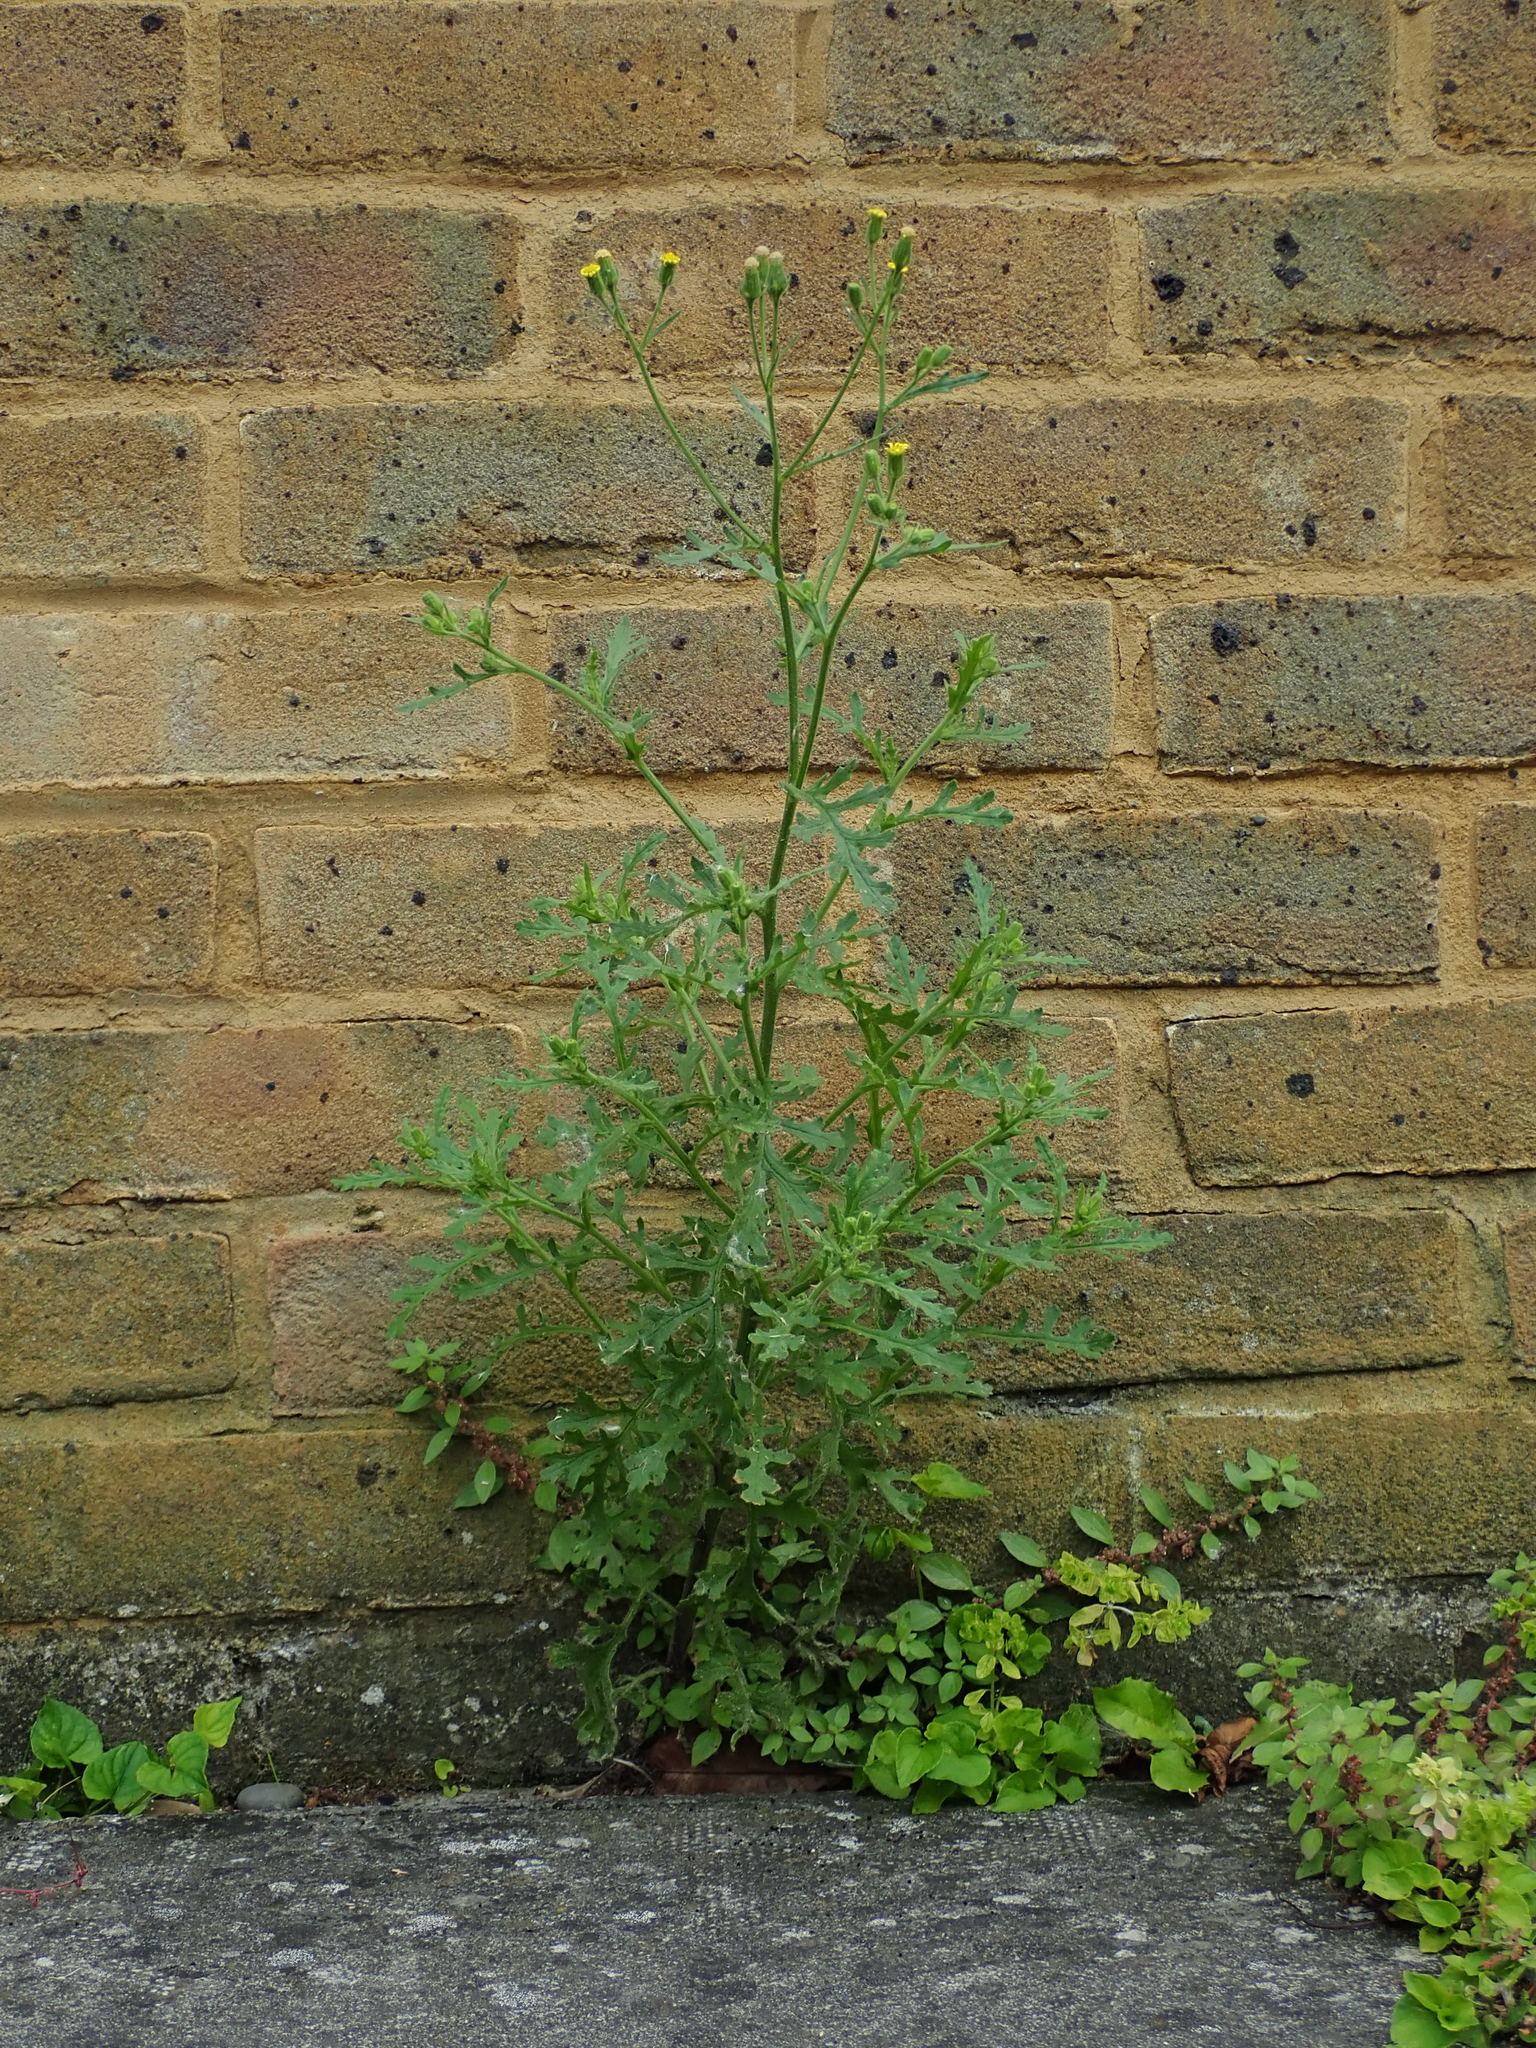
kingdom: Plantae
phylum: Tracheophyta
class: Magnoliopsida
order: Asterales
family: Asteraceae
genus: Senecio
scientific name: Senecio viscosus
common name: Sticky groundsel
